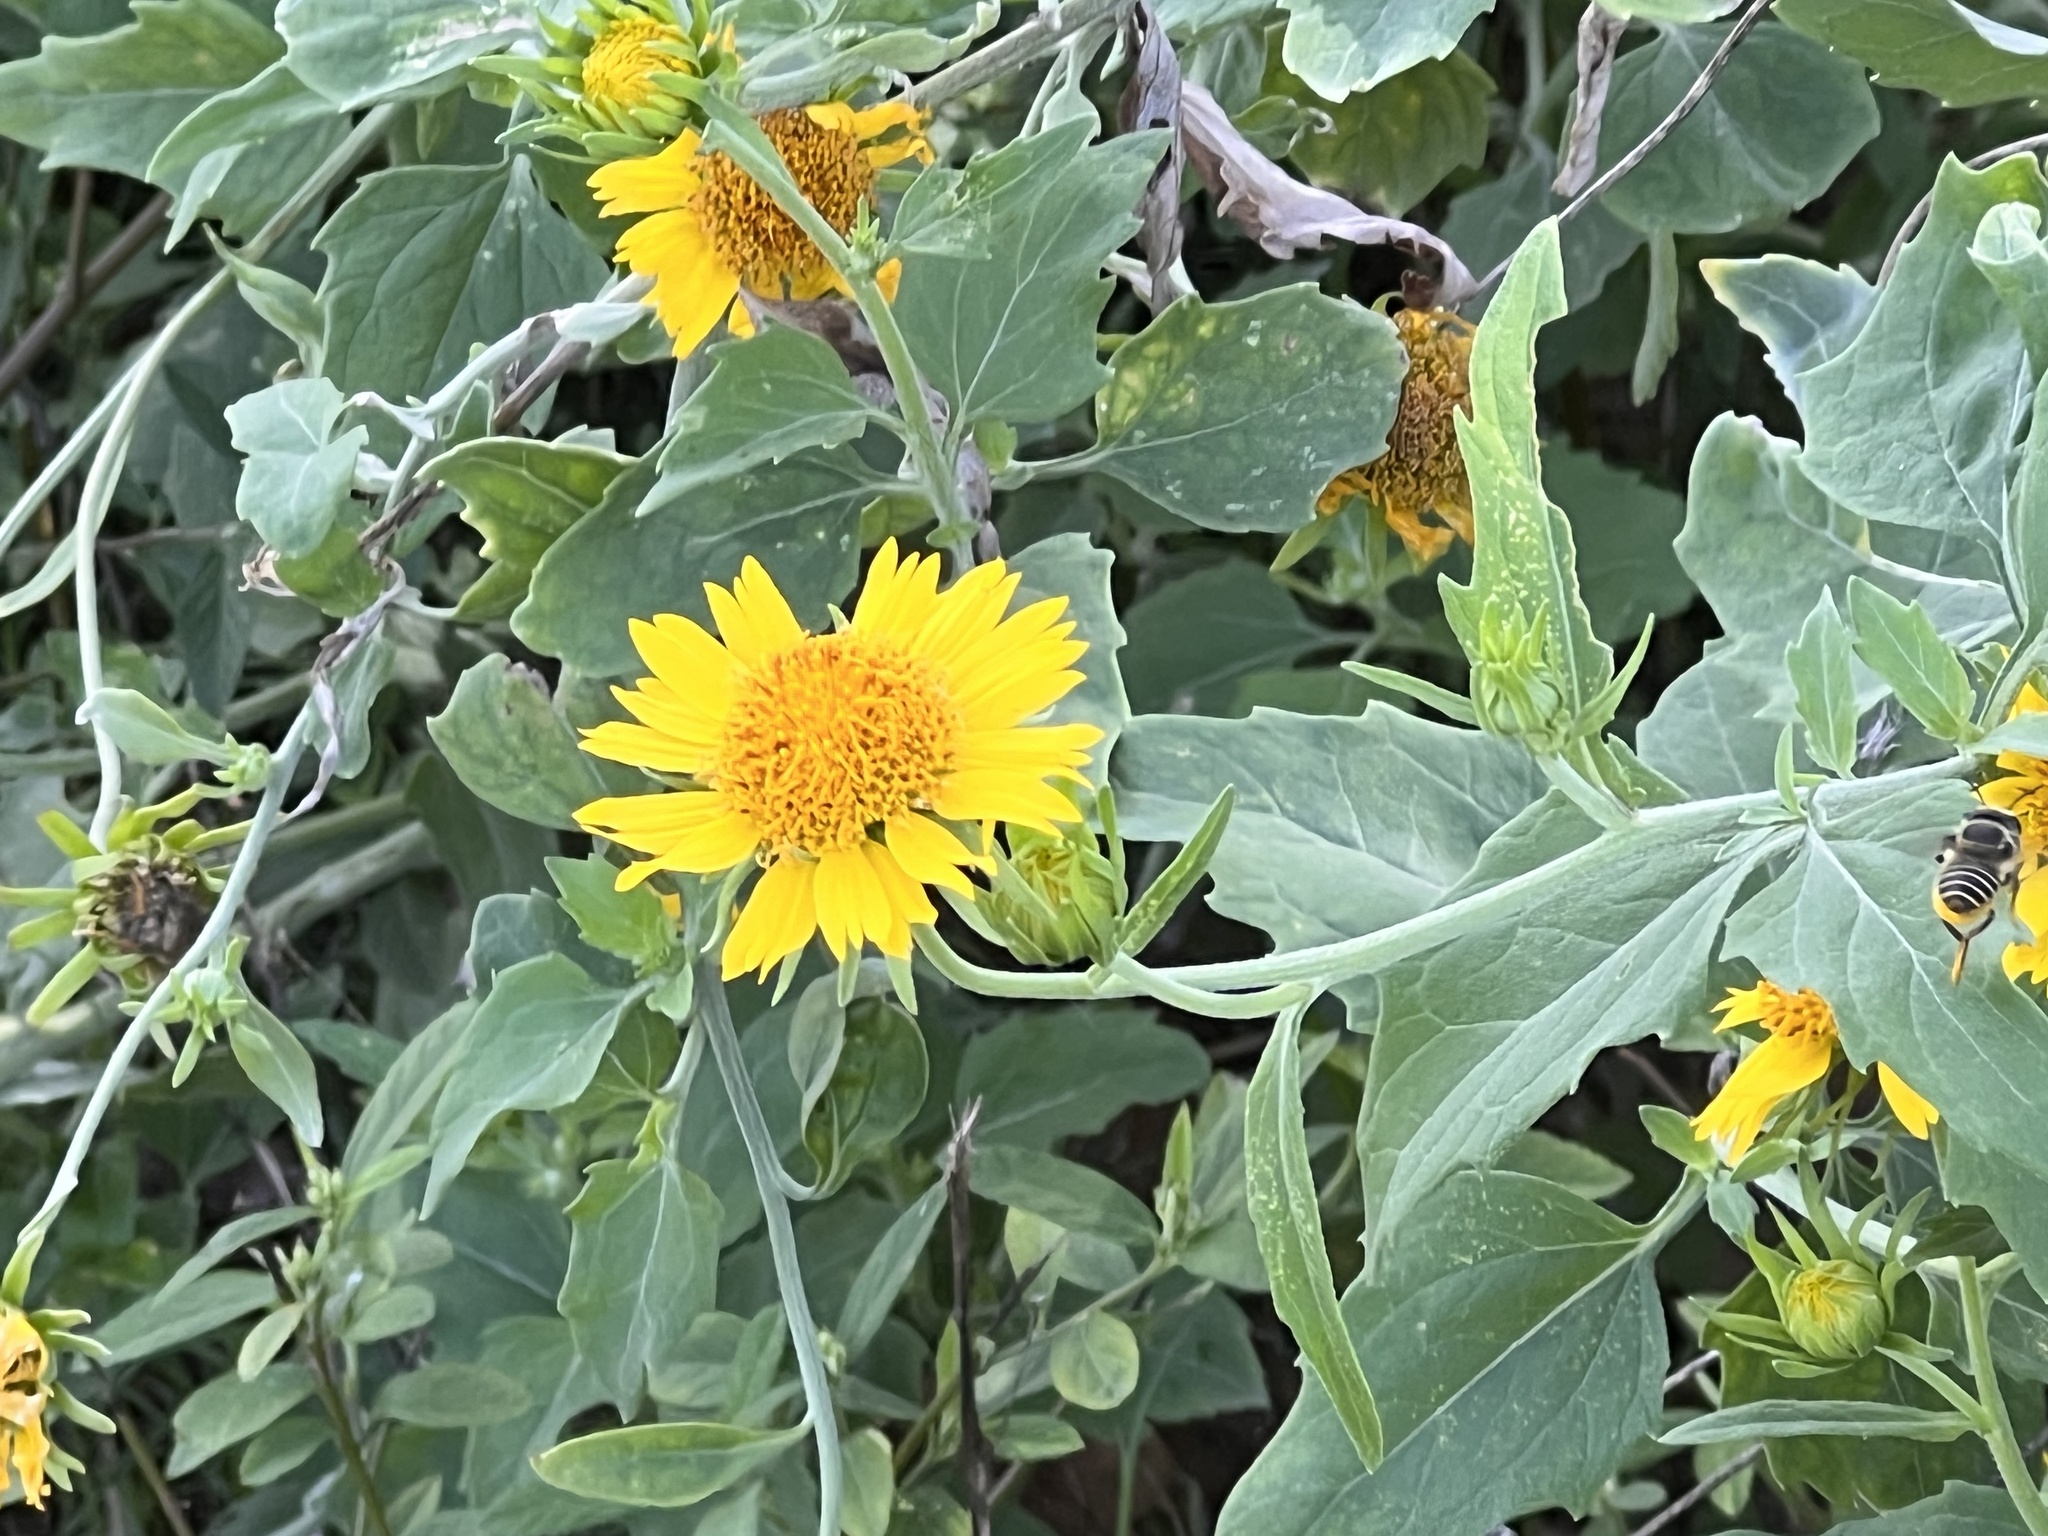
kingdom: Plantae
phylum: Tracheophyta
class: Magnoliopsida
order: Asterales
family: Asteraceae
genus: Verbesina
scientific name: Verbesina encelioides
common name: Golden crownbeard
